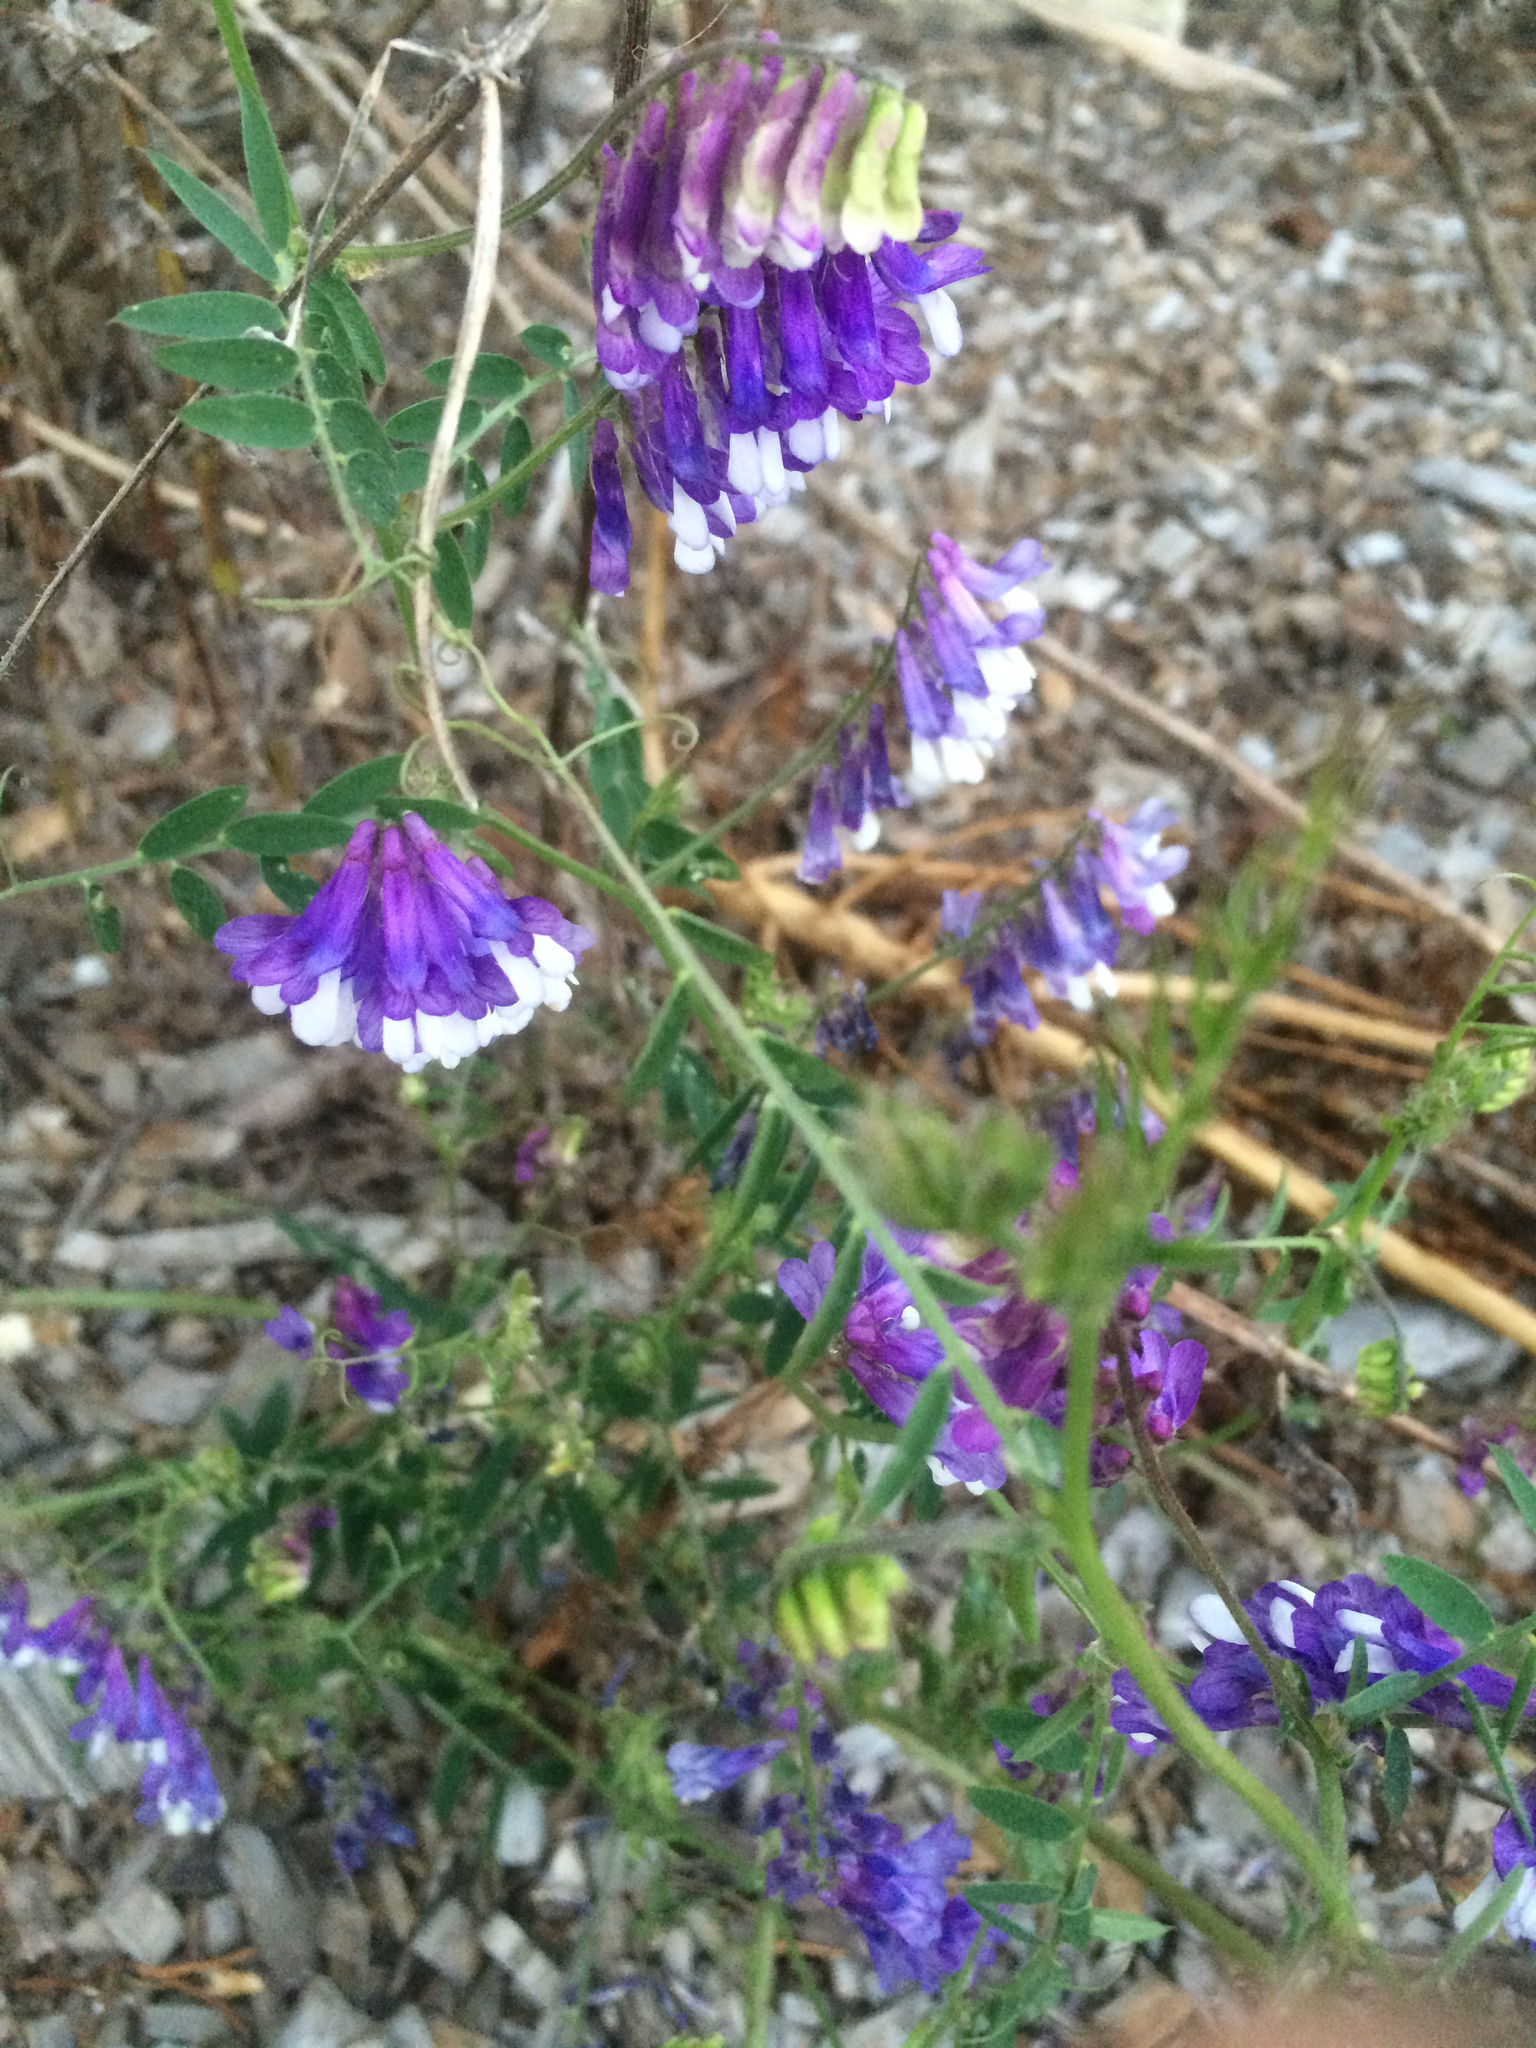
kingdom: Plantae
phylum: Tracheophyta
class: Magnoliopsida
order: Fabales
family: Fabaceae
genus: Vicia
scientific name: Vicia villosa
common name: Fodder vetch
